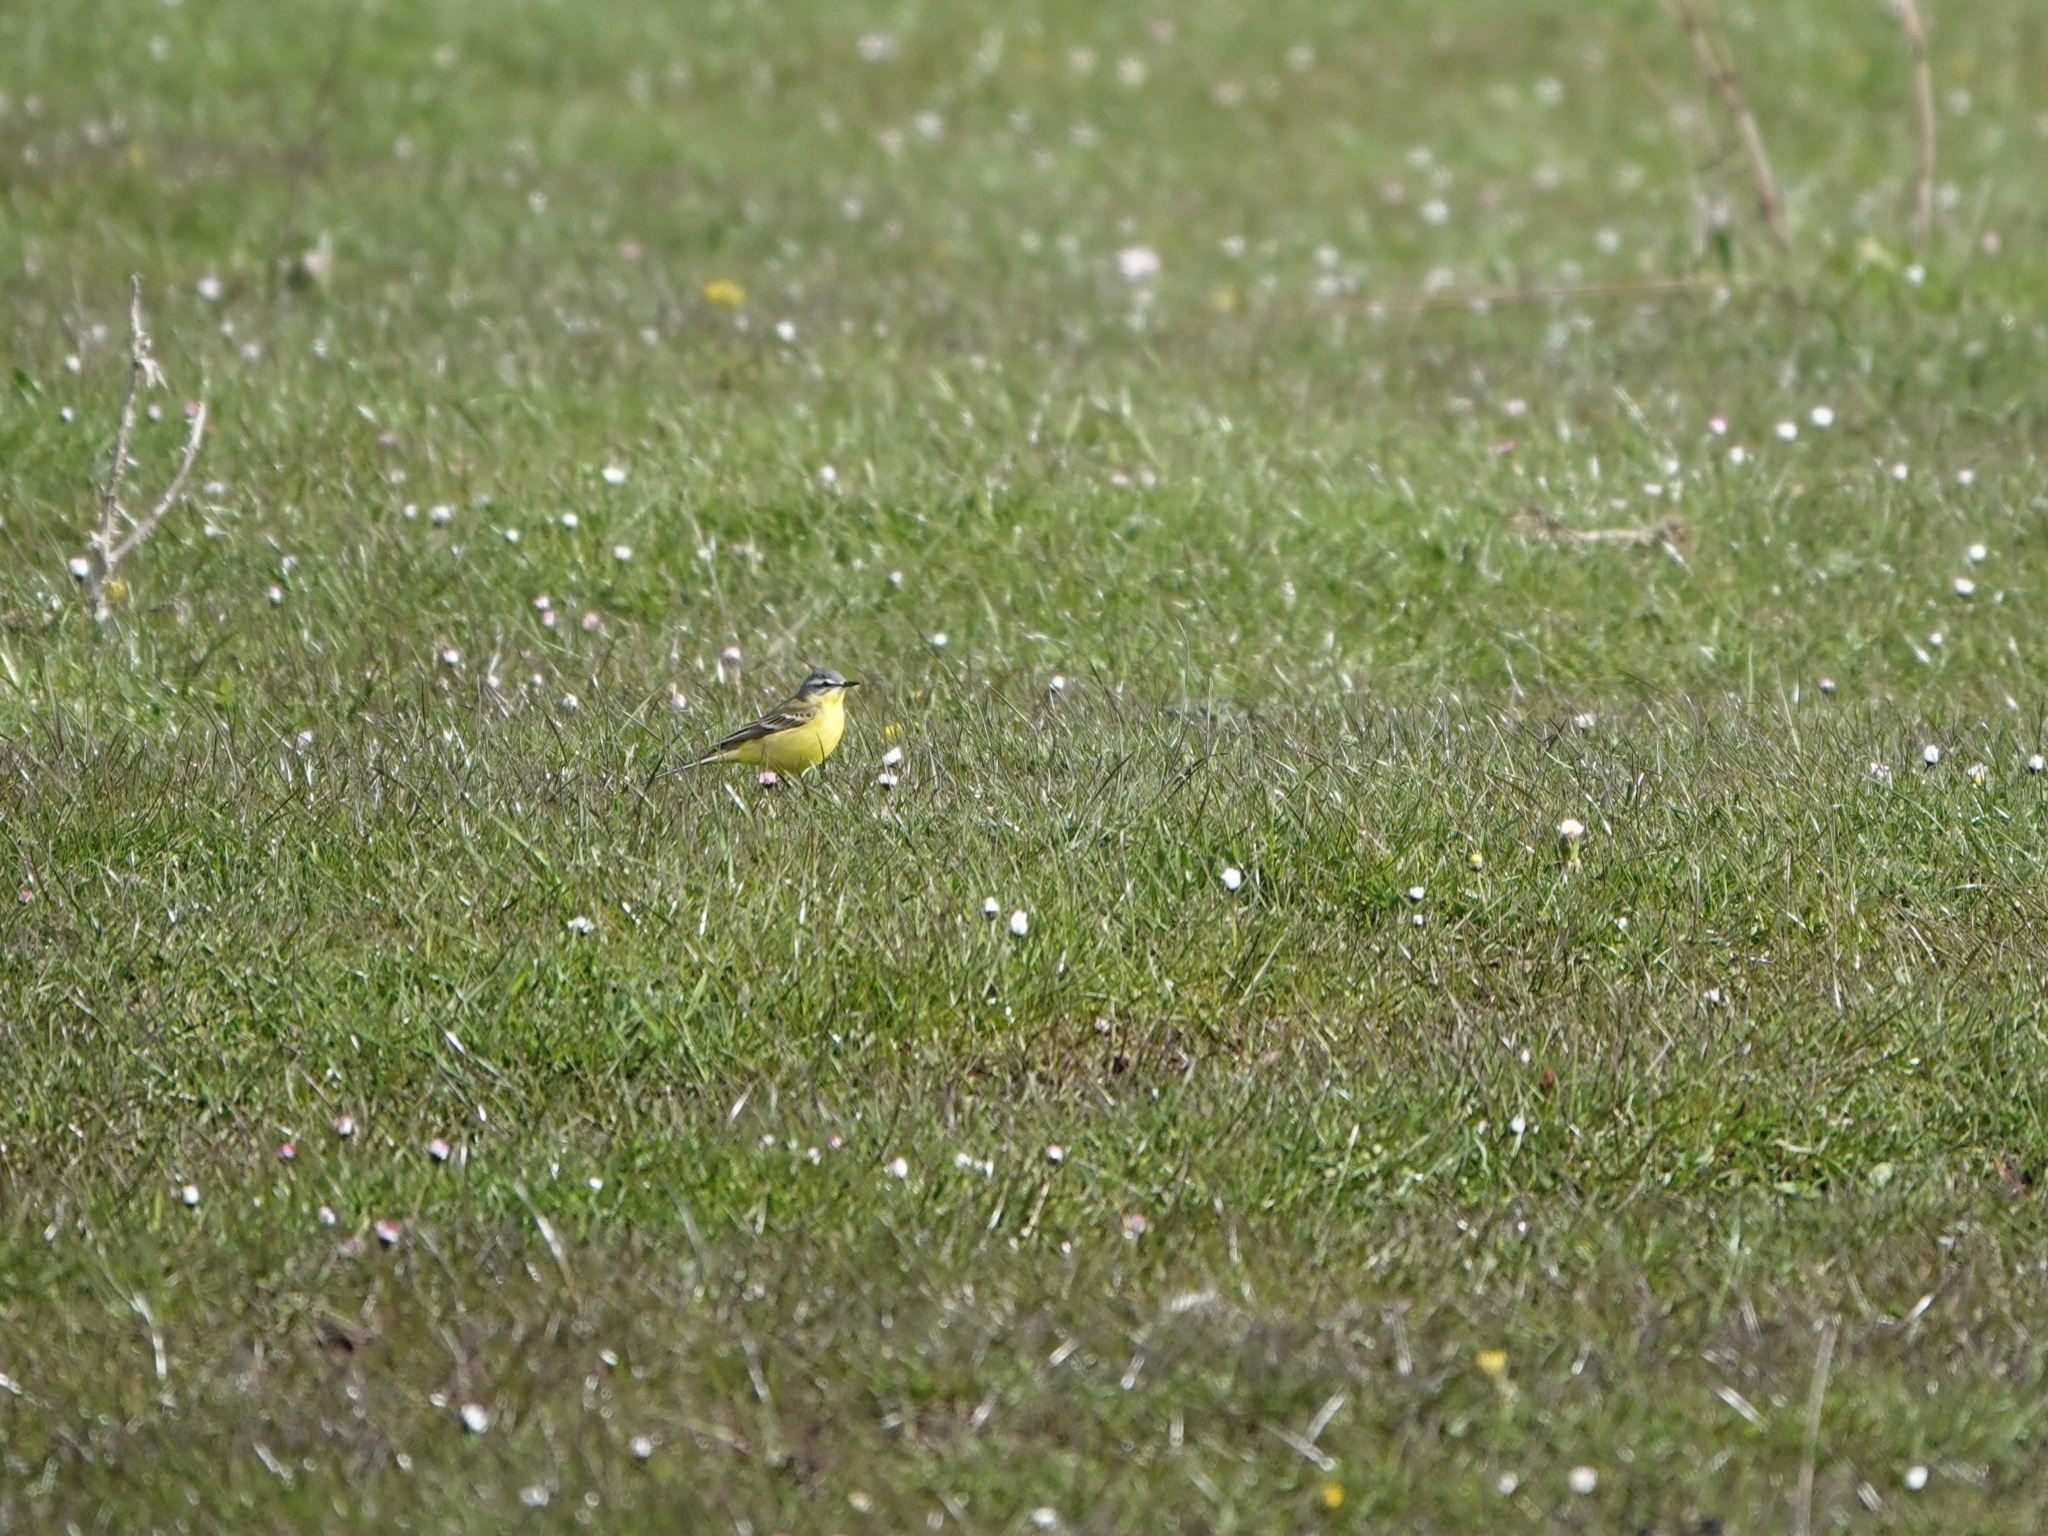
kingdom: Animalia
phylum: Chordata
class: Aves
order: Passeriformes
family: Motacillidae
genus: Motacilla
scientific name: Motacilla flava
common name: Western yellow wagtail
